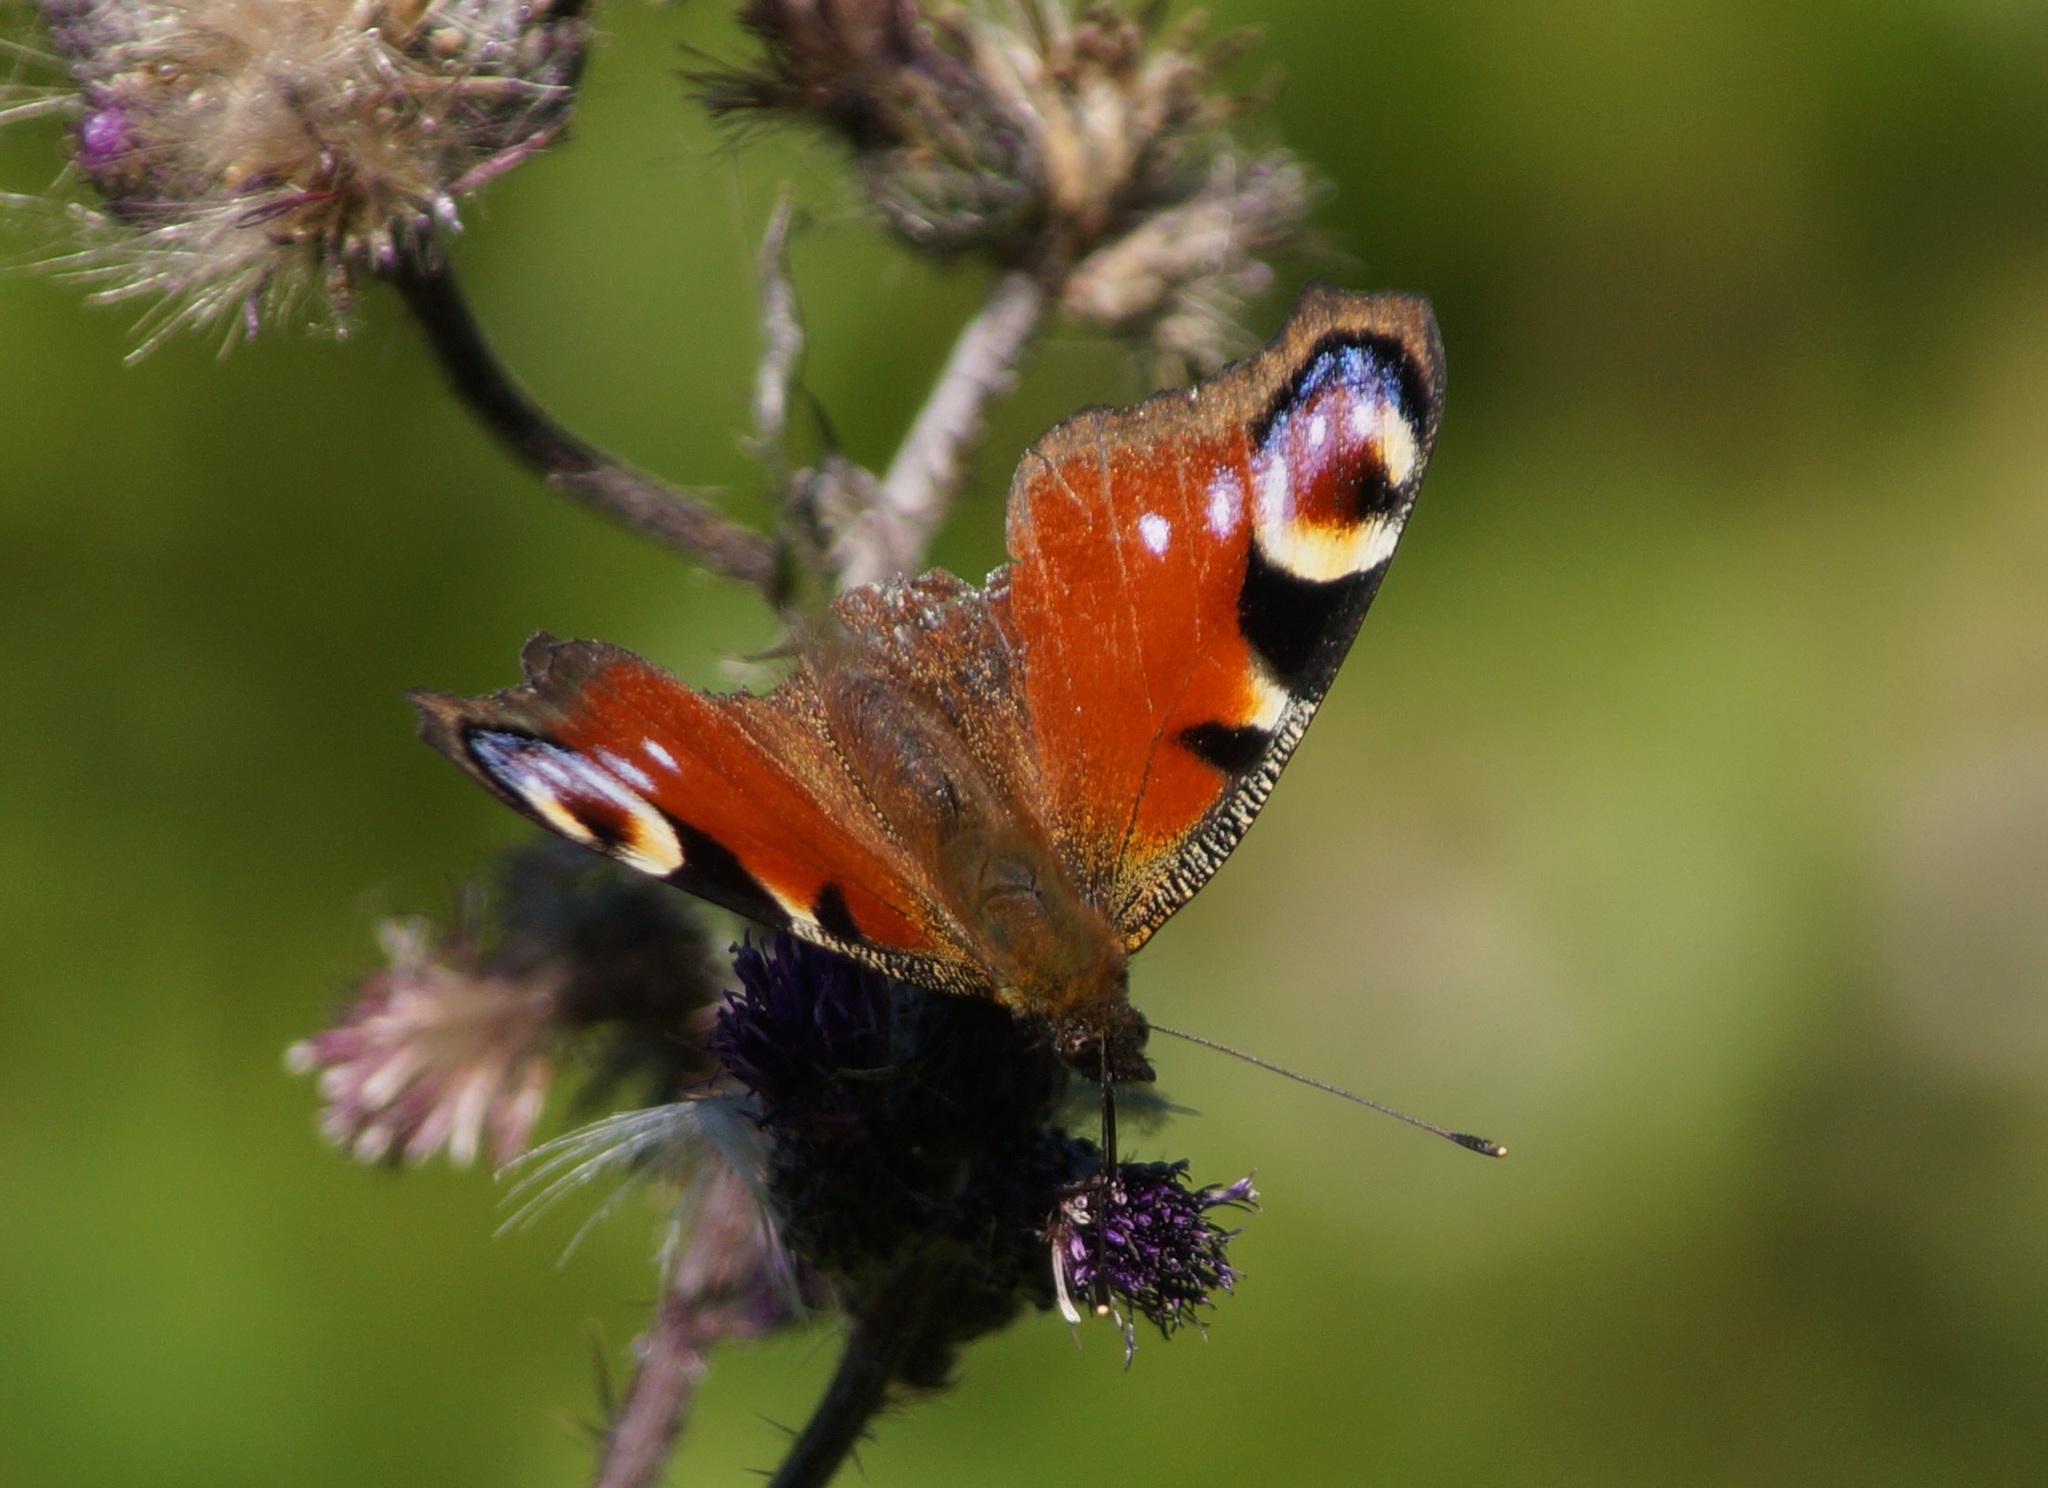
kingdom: Animalia
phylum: Arthropoda
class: Insecta
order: Lepidoptera
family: Nymphalidae
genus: Aglais
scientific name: Aglais io
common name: Peacock
